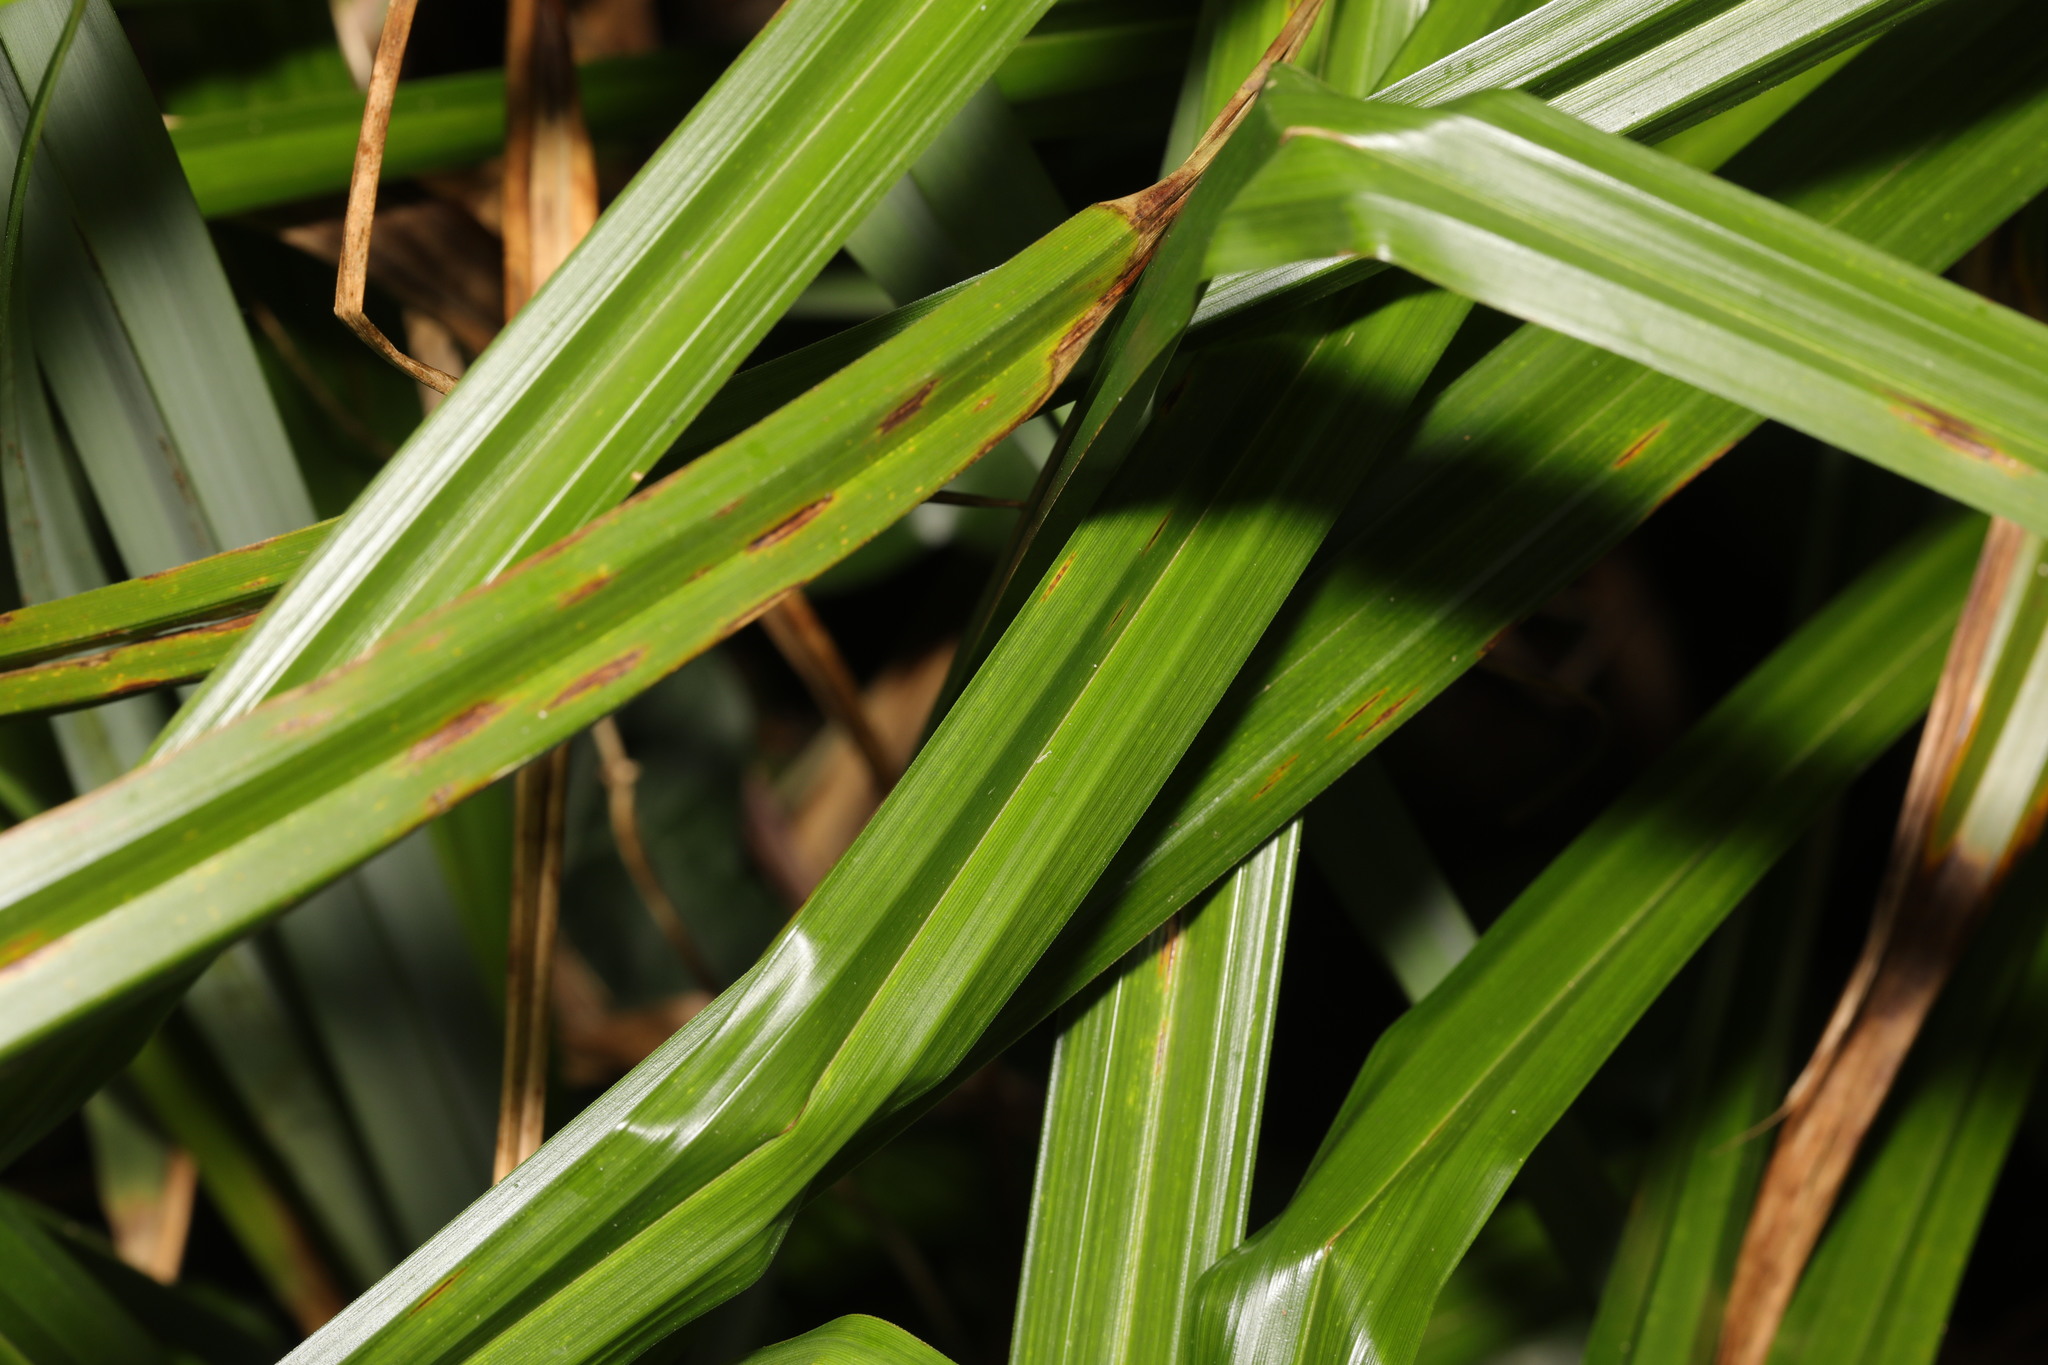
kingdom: Plantae
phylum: Tracheophyta
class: Liliopsida
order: Poales
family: Cyperaceae
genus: Carex
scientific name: Carex pendula
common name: Pendulous sedge
